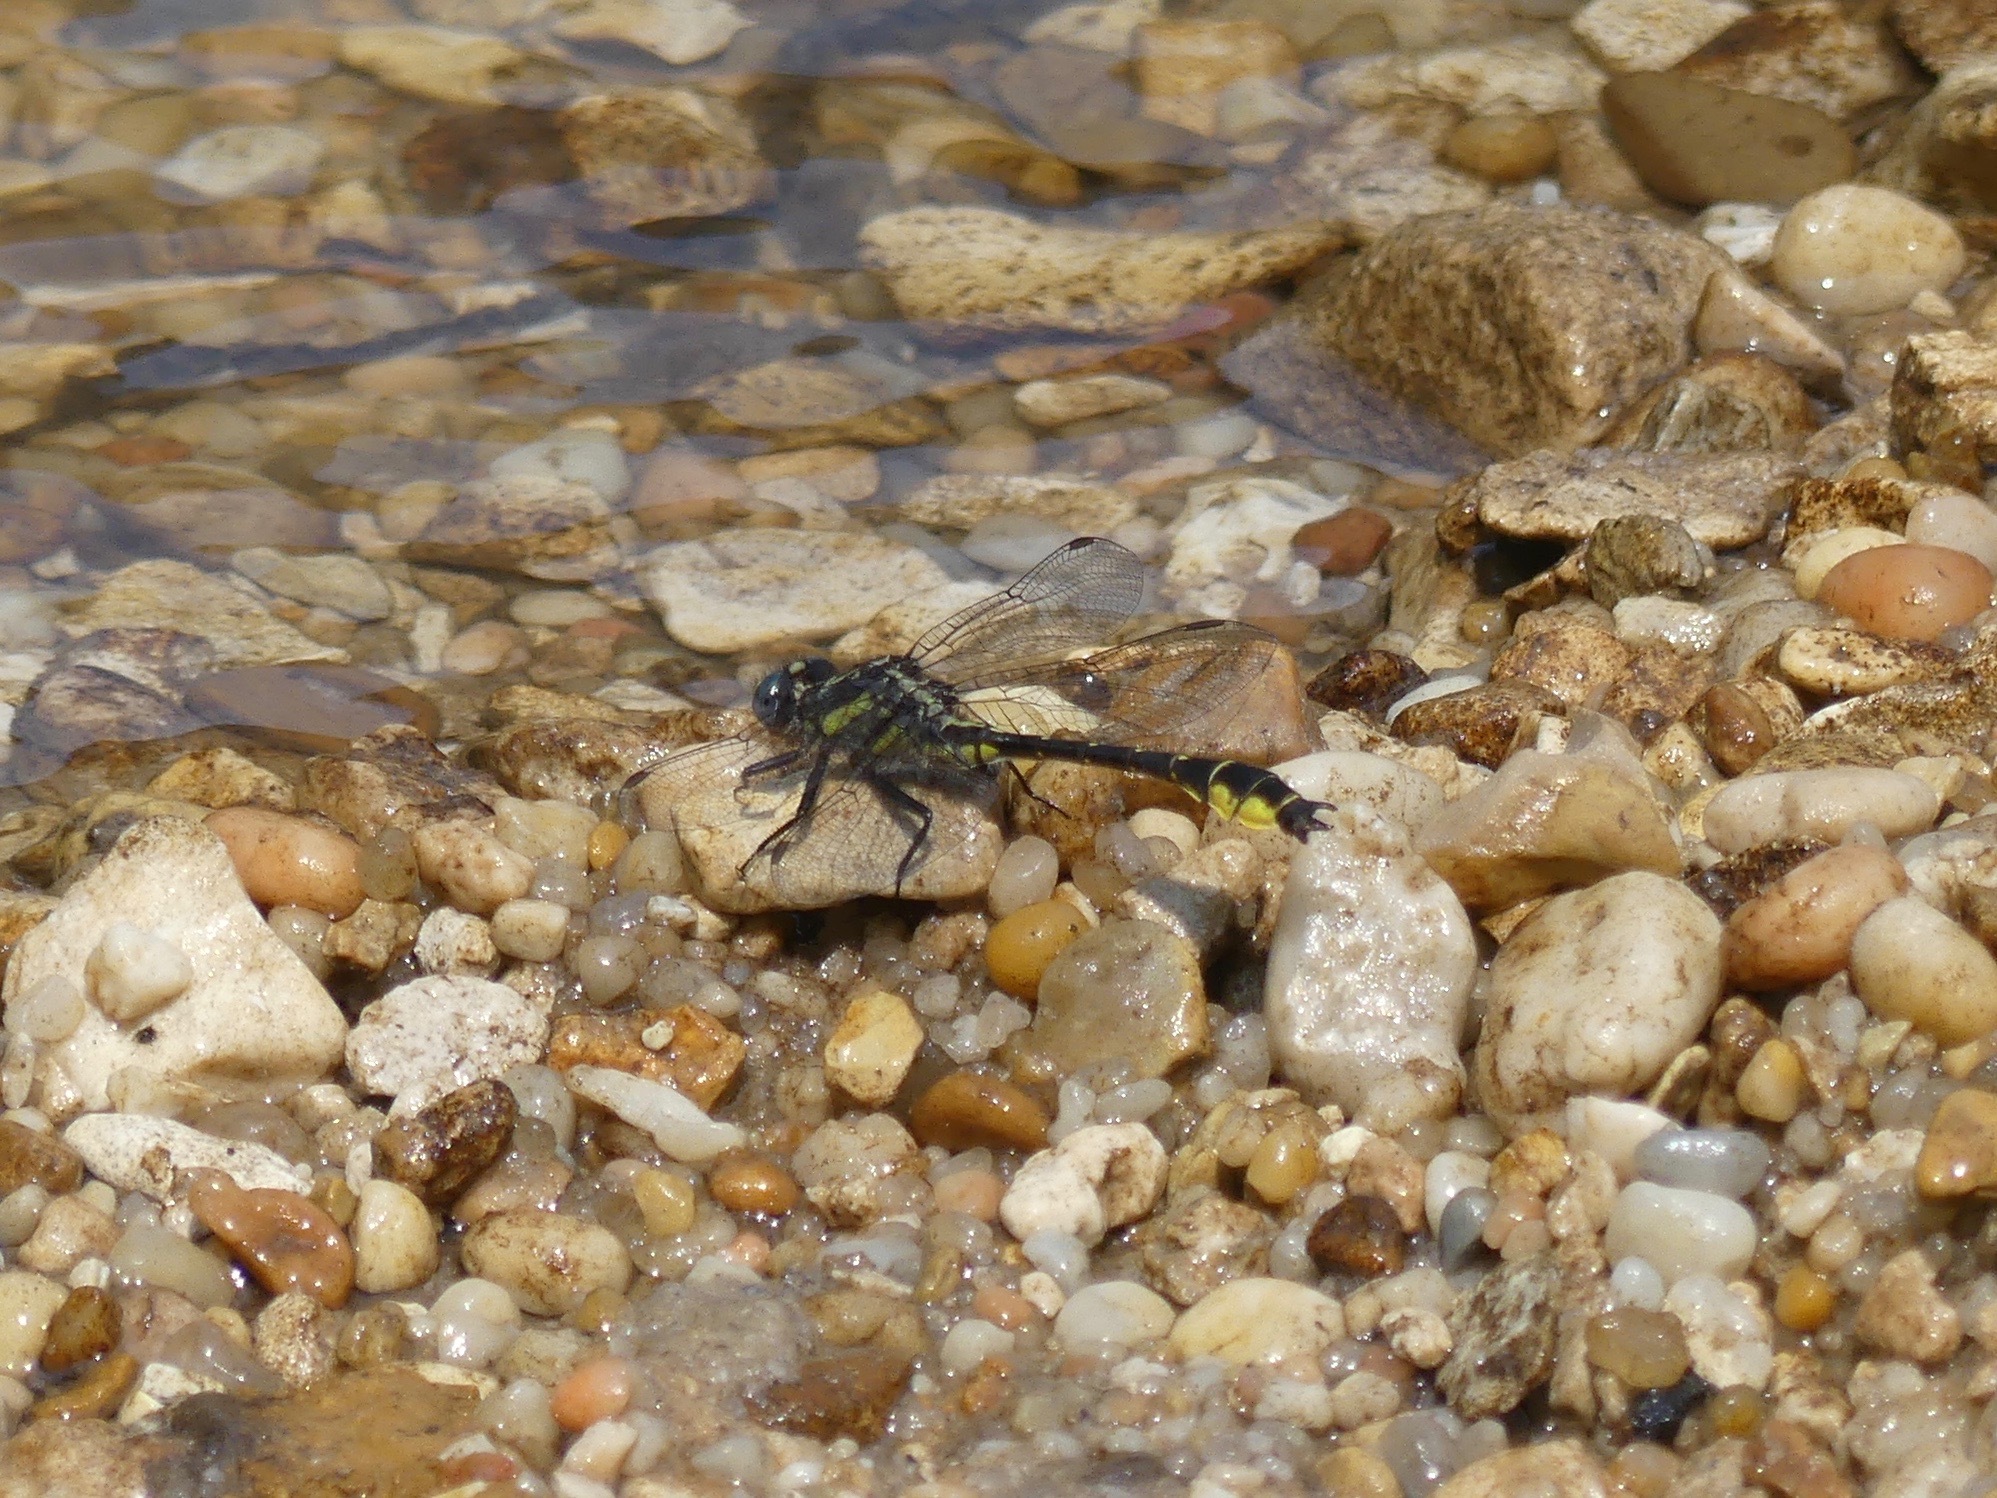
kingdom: Animalia
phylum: Arthropoda
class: Insecta
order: Odonata
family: Gomphidae
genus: Hylogomphus
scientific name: Hylogomphus apomyius
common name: Banner clubtail
